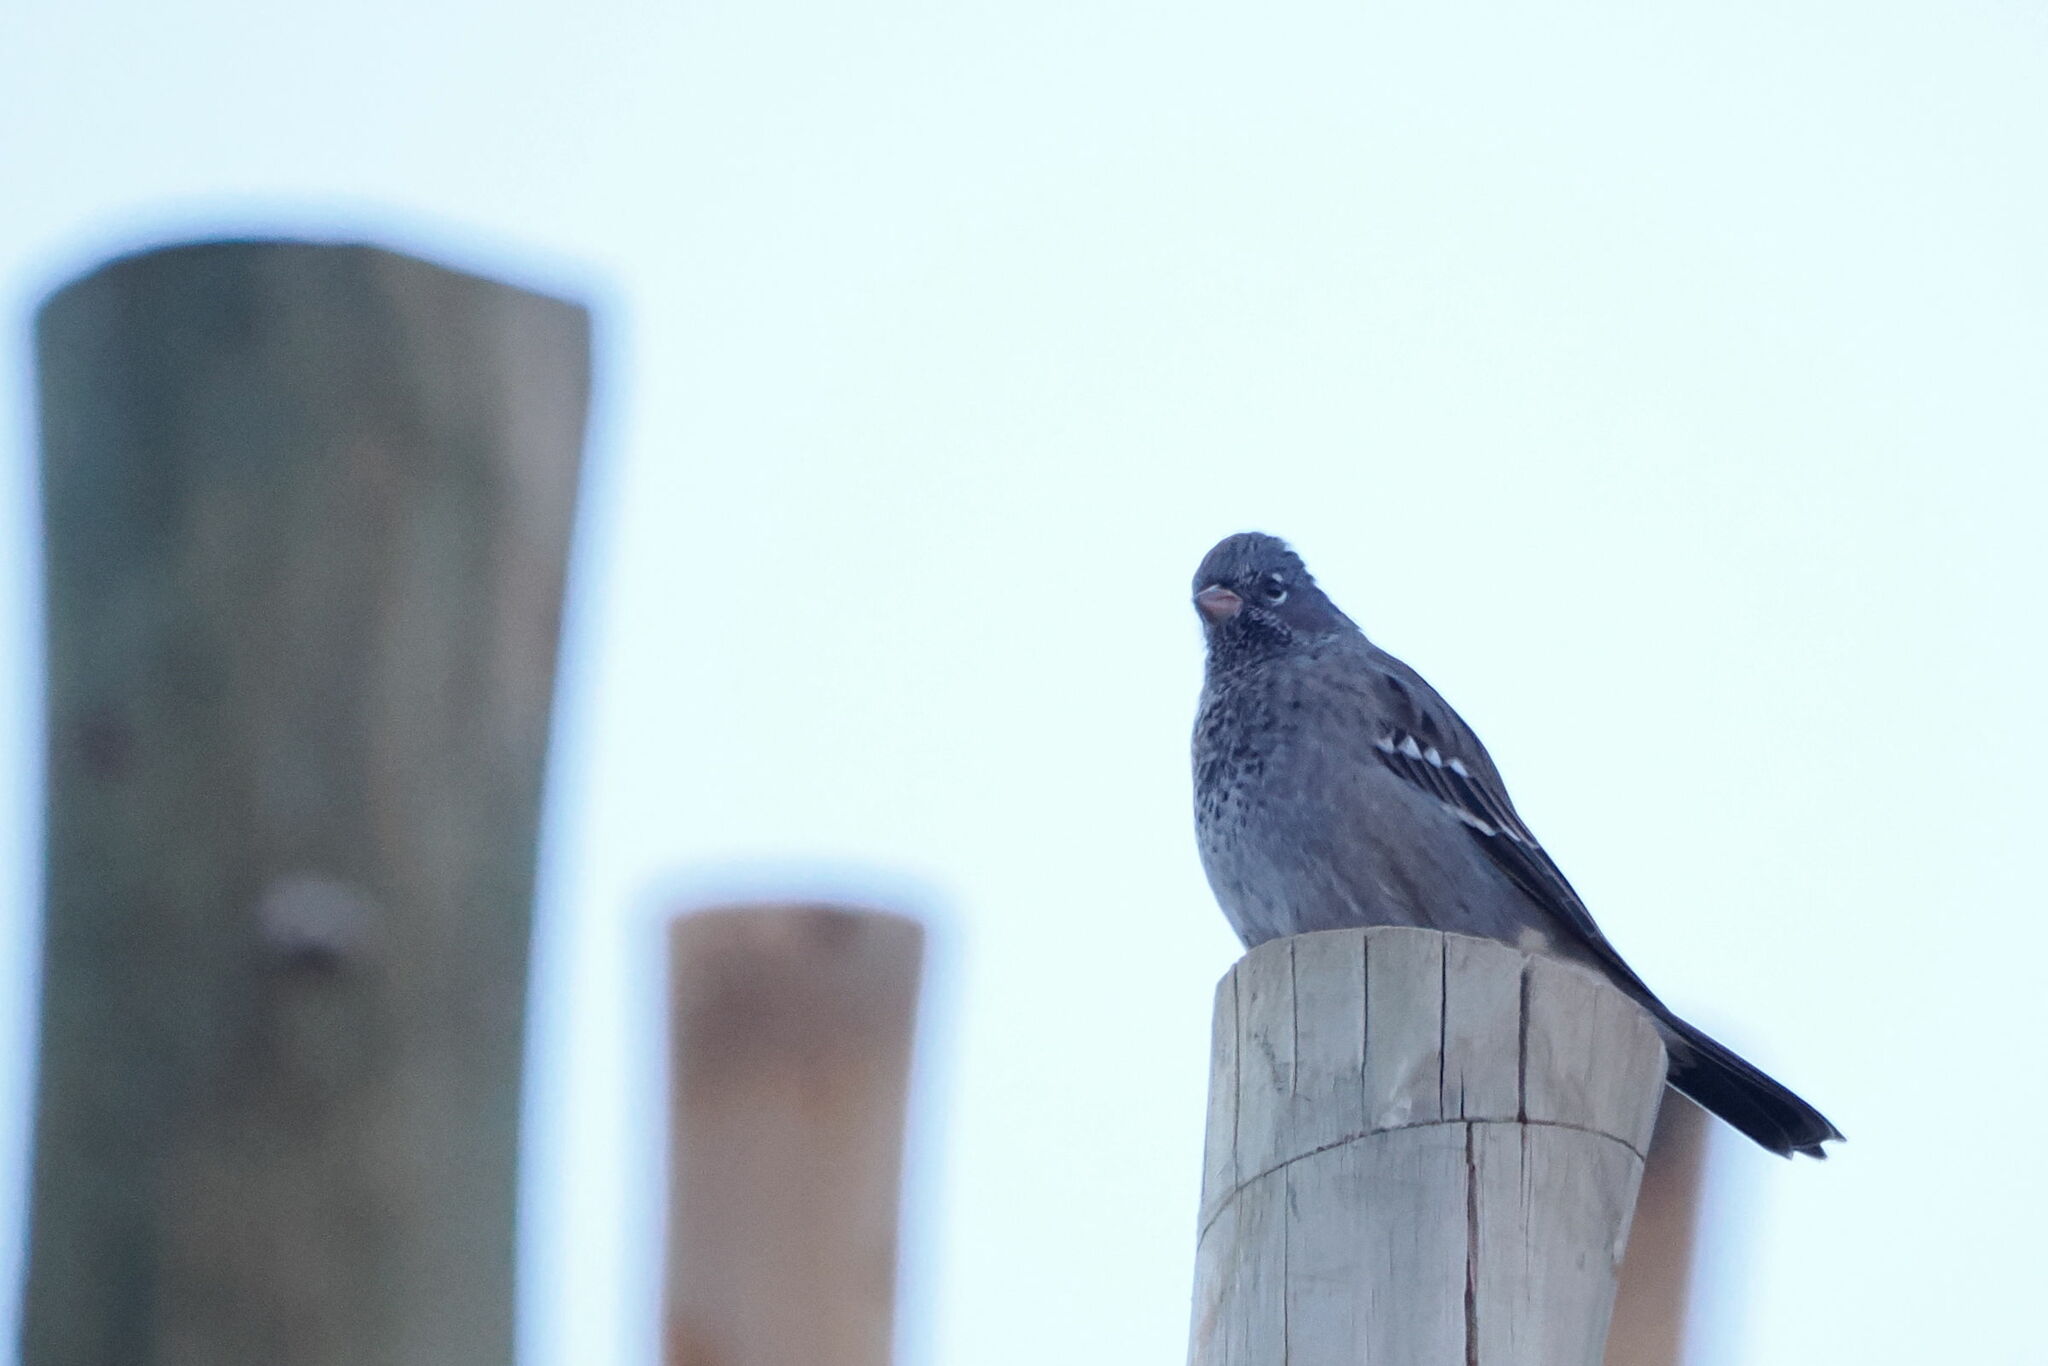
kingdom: Animalia
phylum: Chordata
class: Aves
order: Passeriformes
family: Thraupidae
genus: Rhopospina
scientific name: Rhopospina fruticeti
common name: Mourning sierra finch
